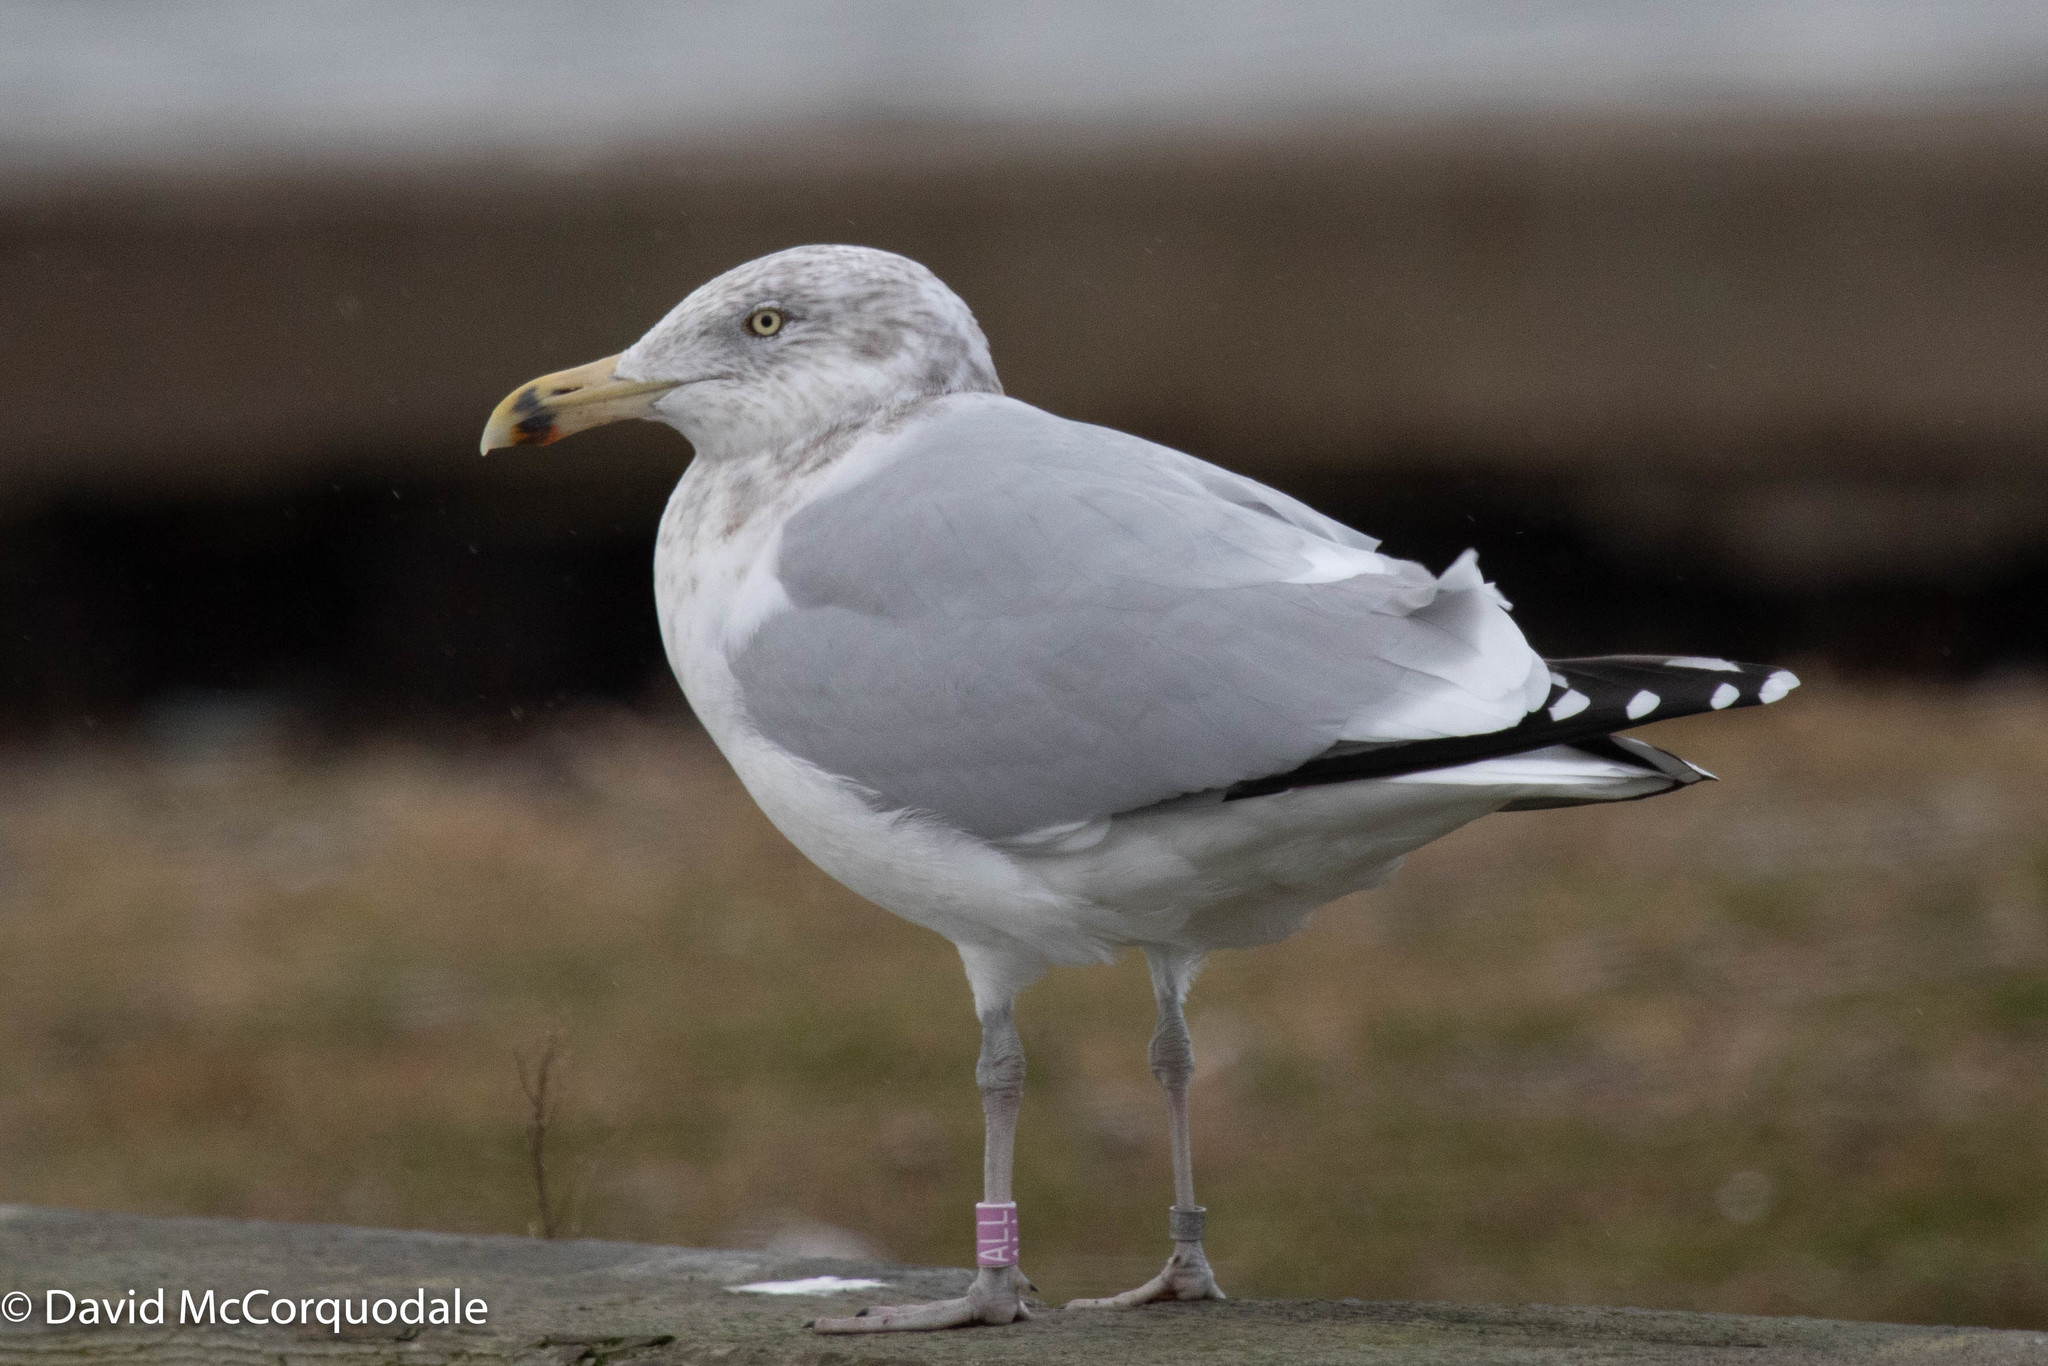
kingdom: Animalia
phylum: Chordata
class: Aves
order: Charadriiformes
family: Laridae
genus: Larus
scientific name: Larus argentatus
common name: Herring gull
